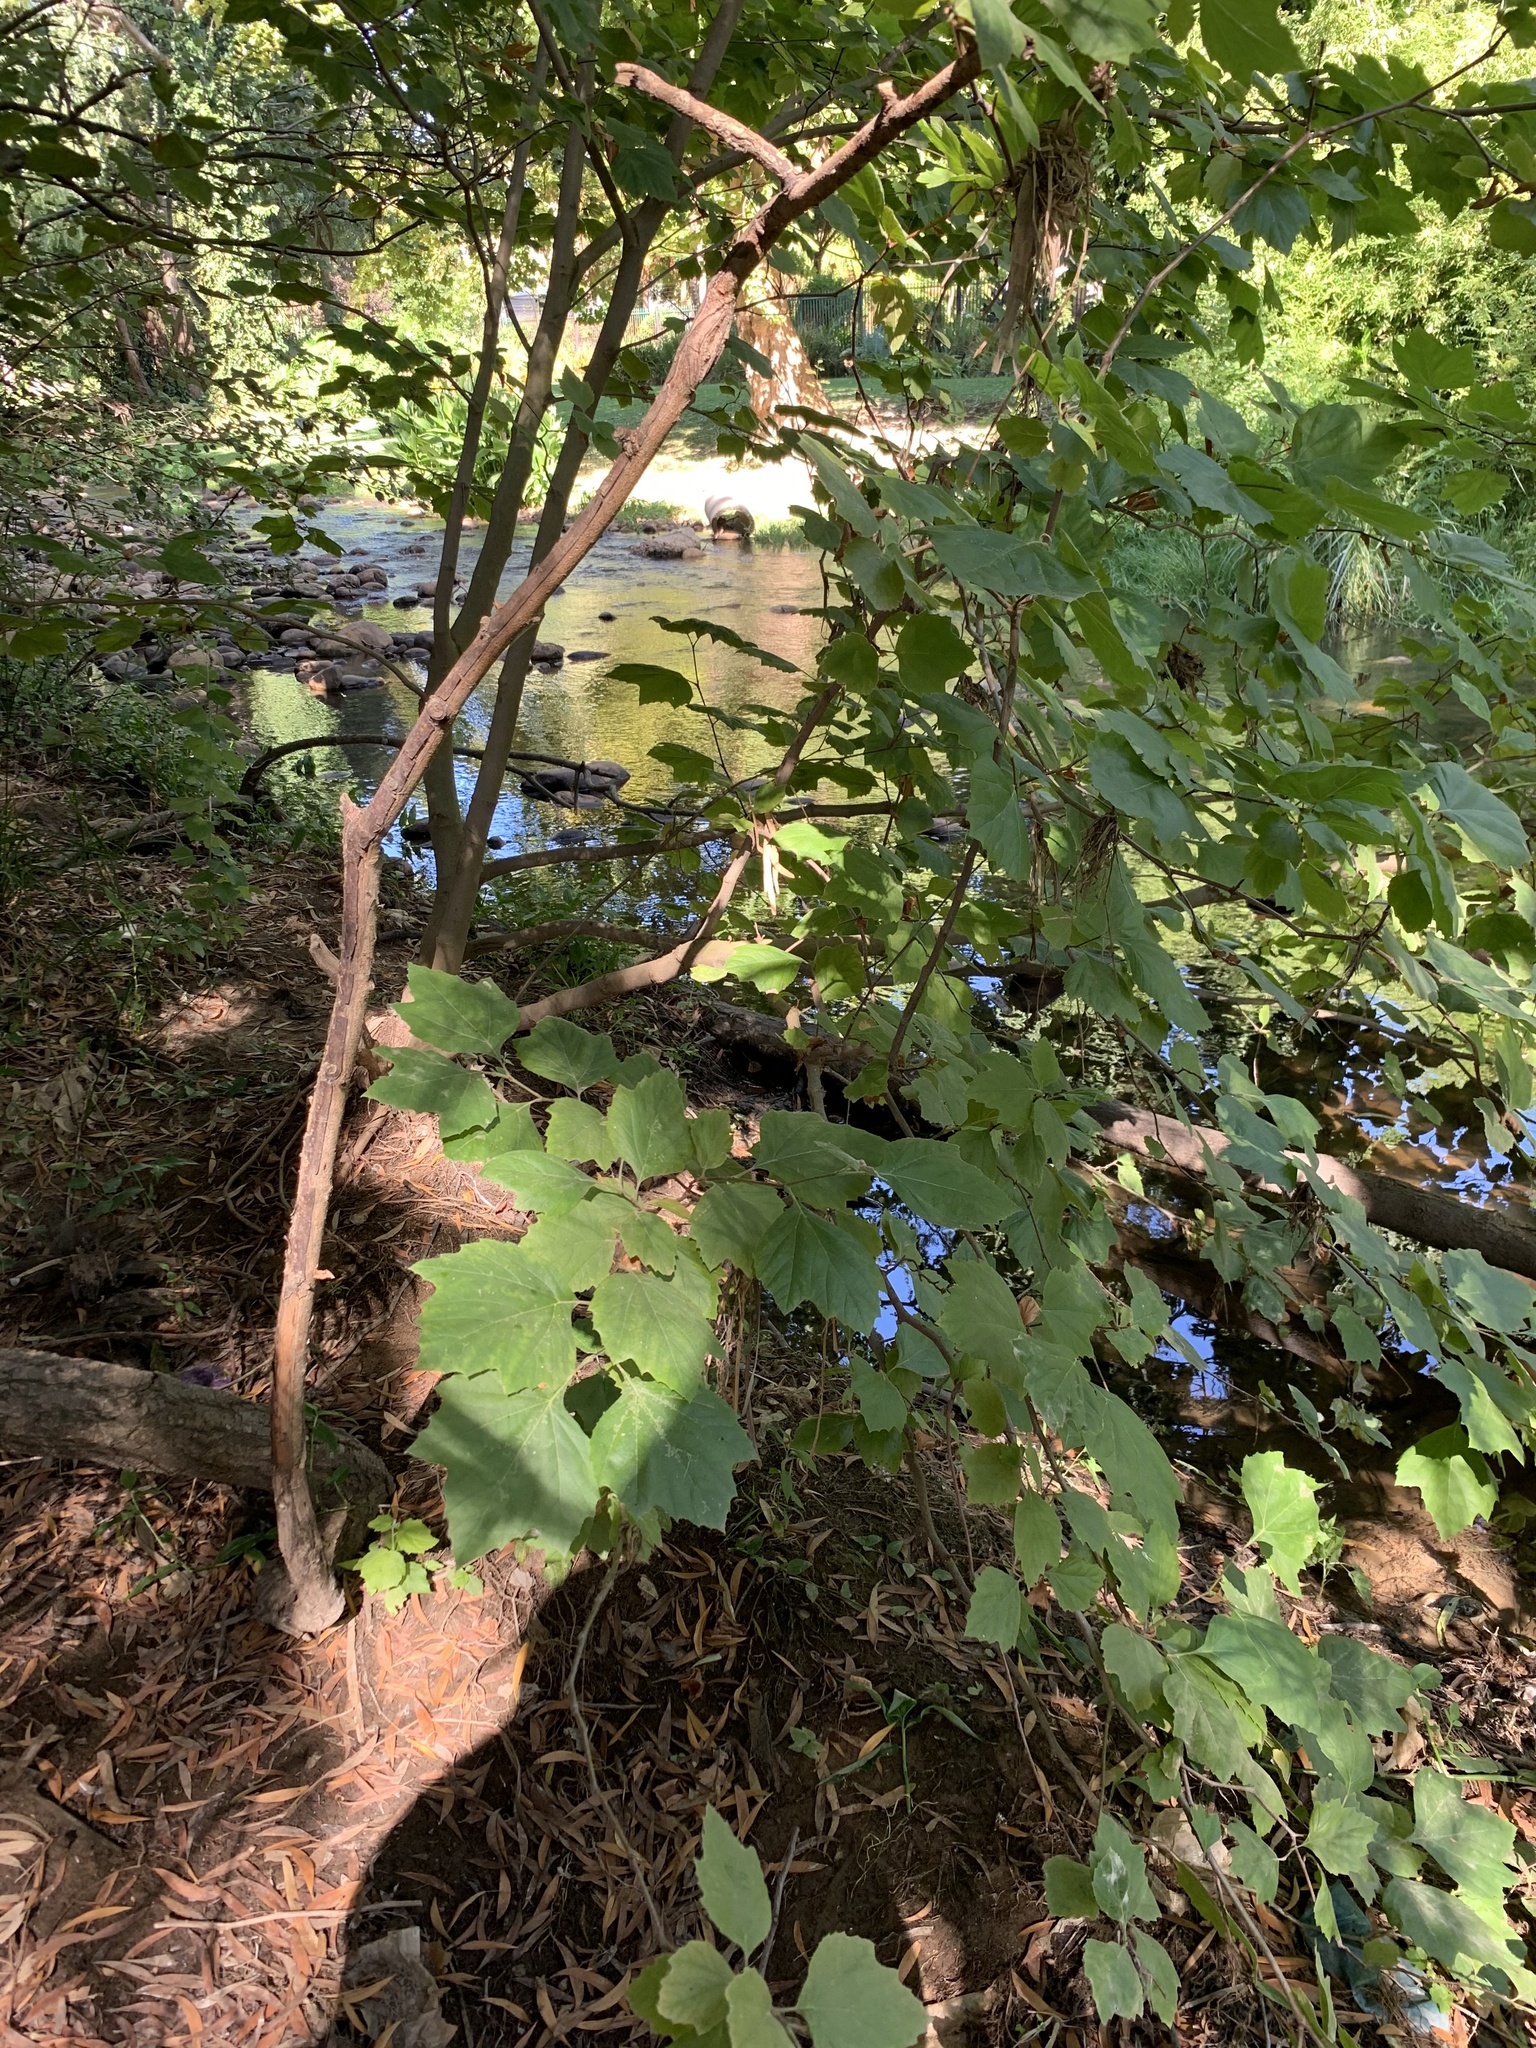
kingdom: Plantae
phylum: Tracheophyta
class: Magnoliopsida
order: Proteales
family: Platanaceae
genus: Platanus
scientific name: Platanus hispanica
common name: London plane
